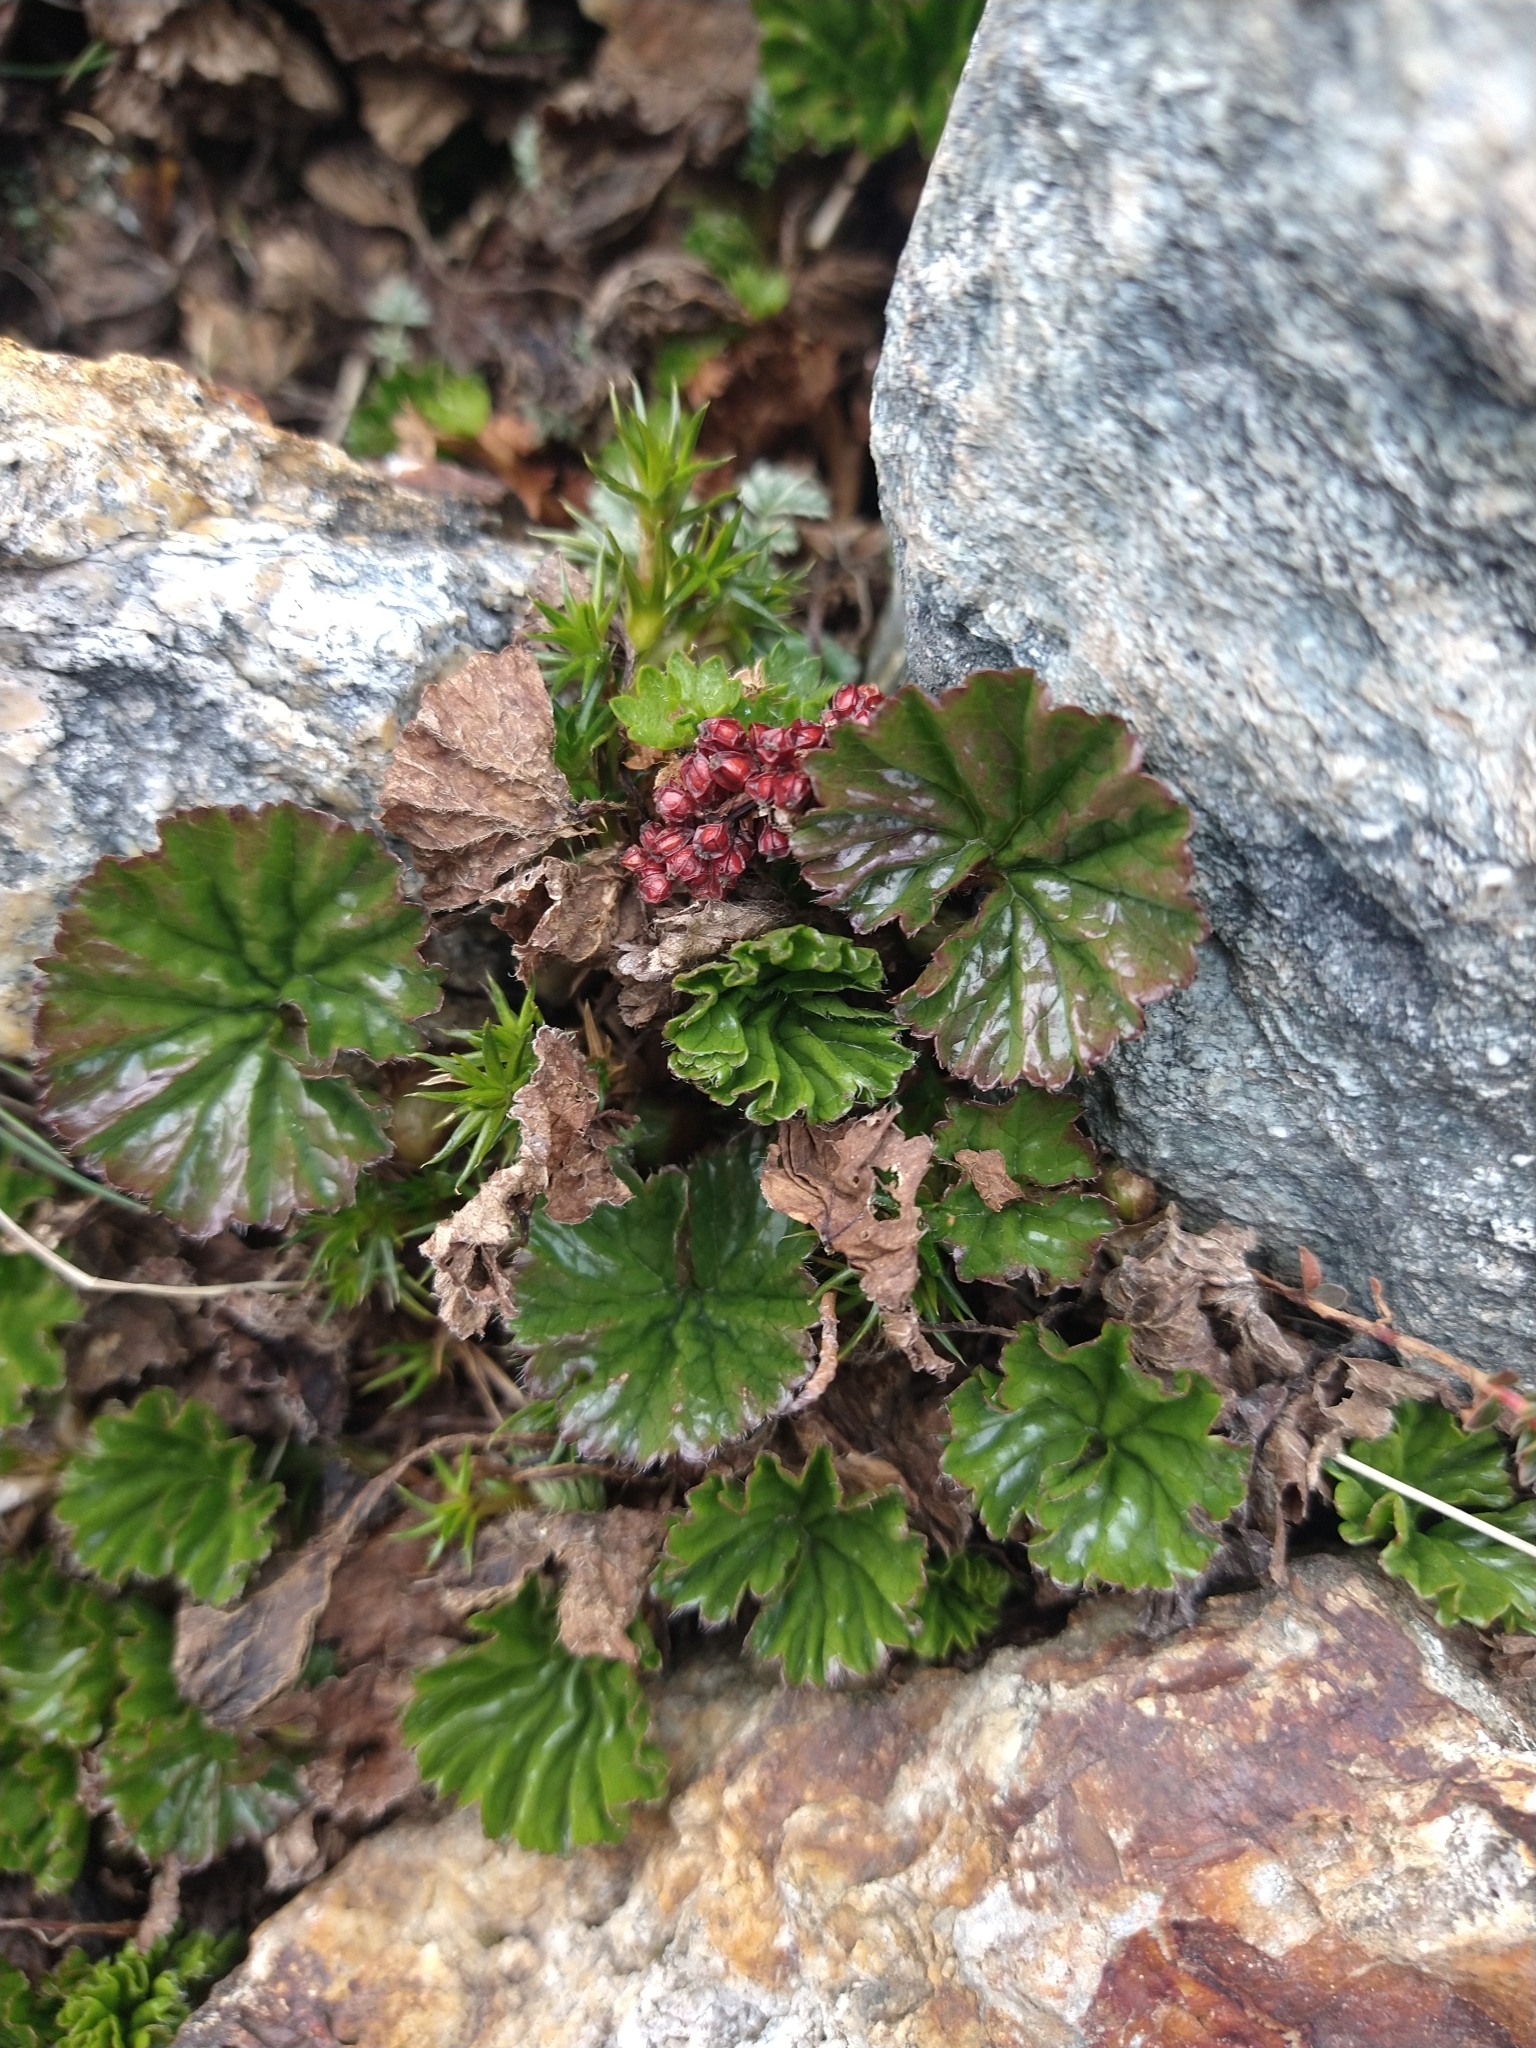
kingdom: Plantae
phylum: Tracheophyta
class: Magnoliopsida
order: Gunnerales
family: Gunneraceae
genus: Gunnera
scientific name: Gunnera magellanica
